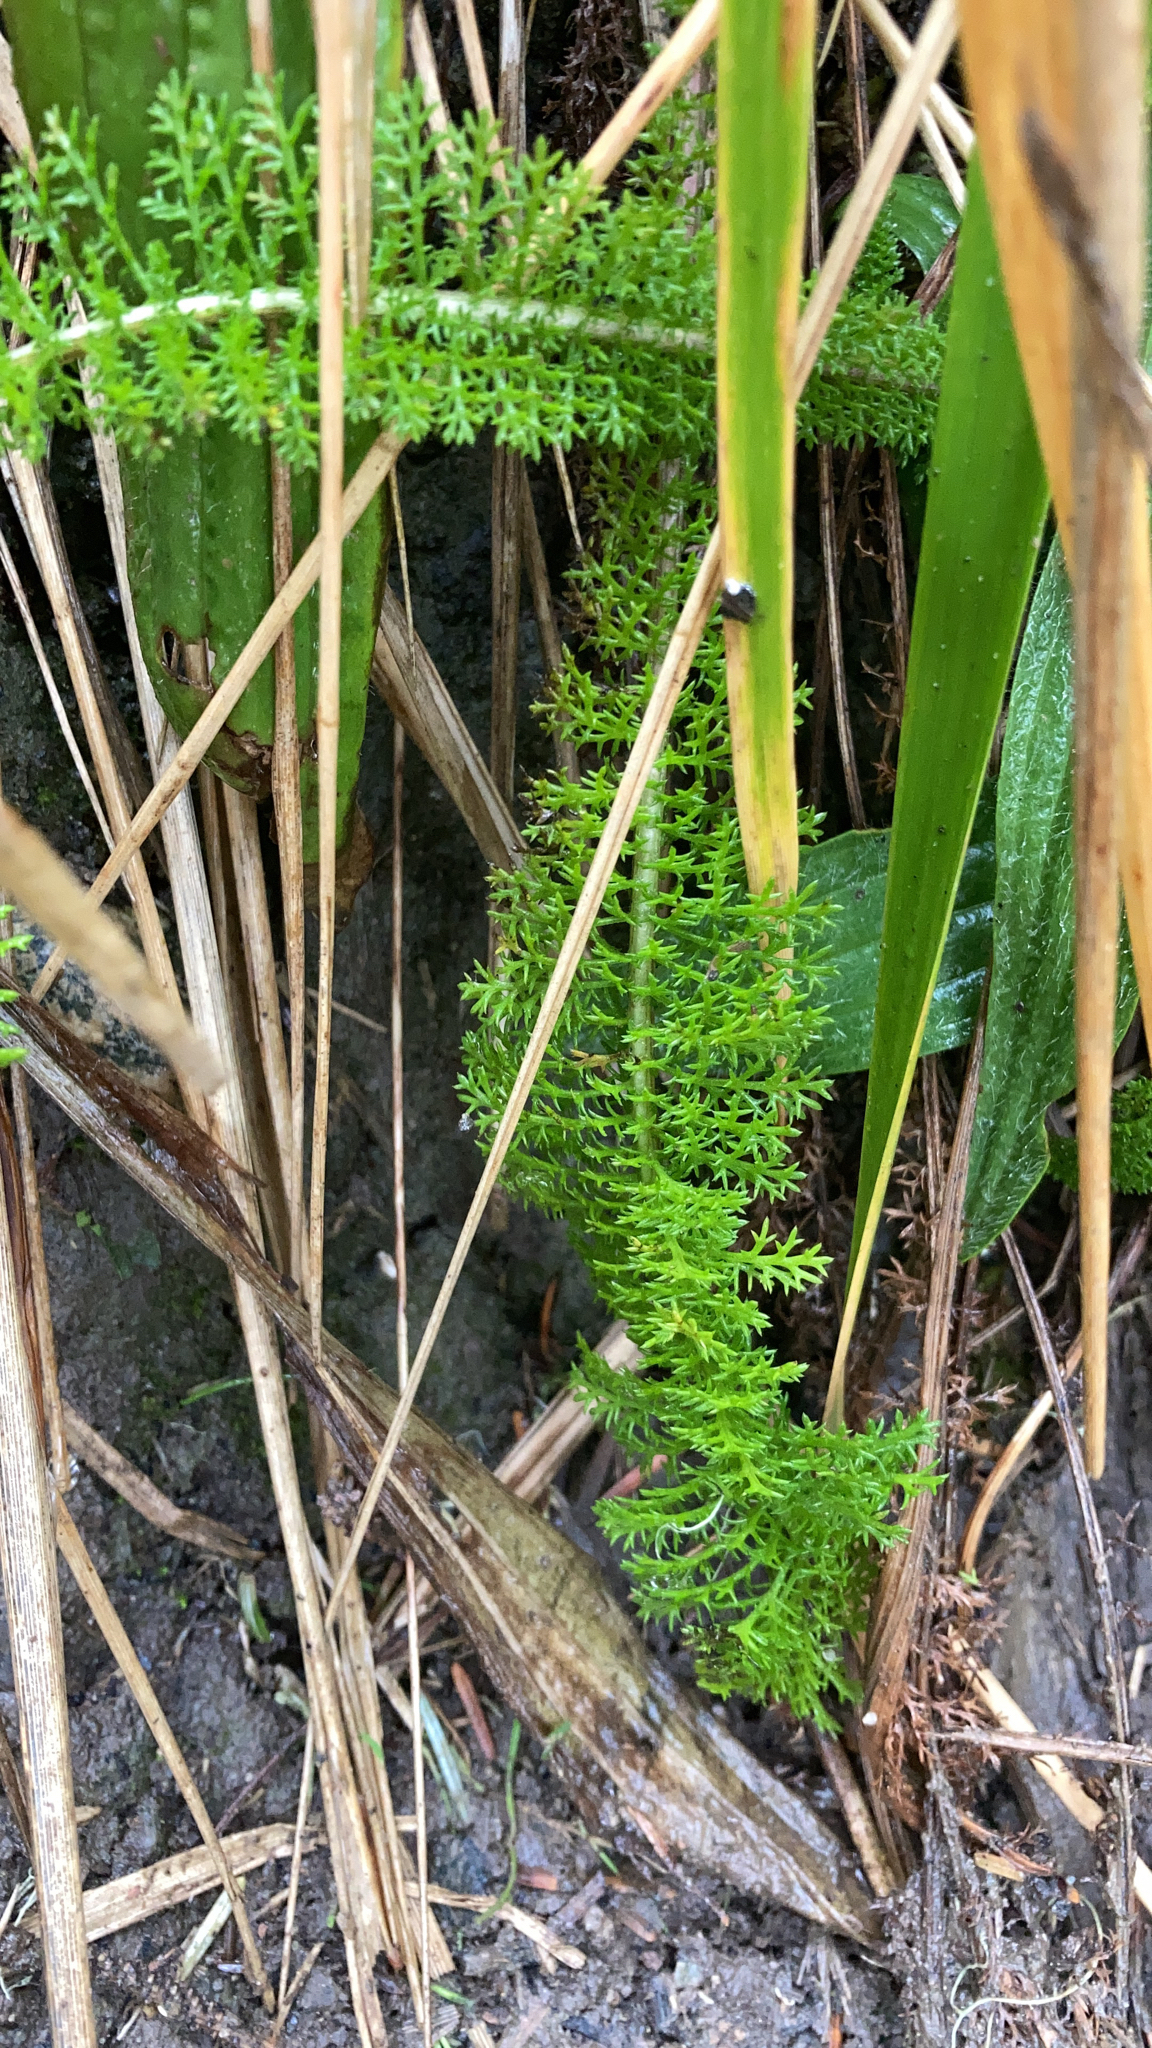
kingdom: Plantae
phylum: Tracheophyta
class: Magnoliopsida
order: Asterales
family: Asteraceae
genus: Achillea
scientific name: Achillea millefolium
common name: Yarrow
